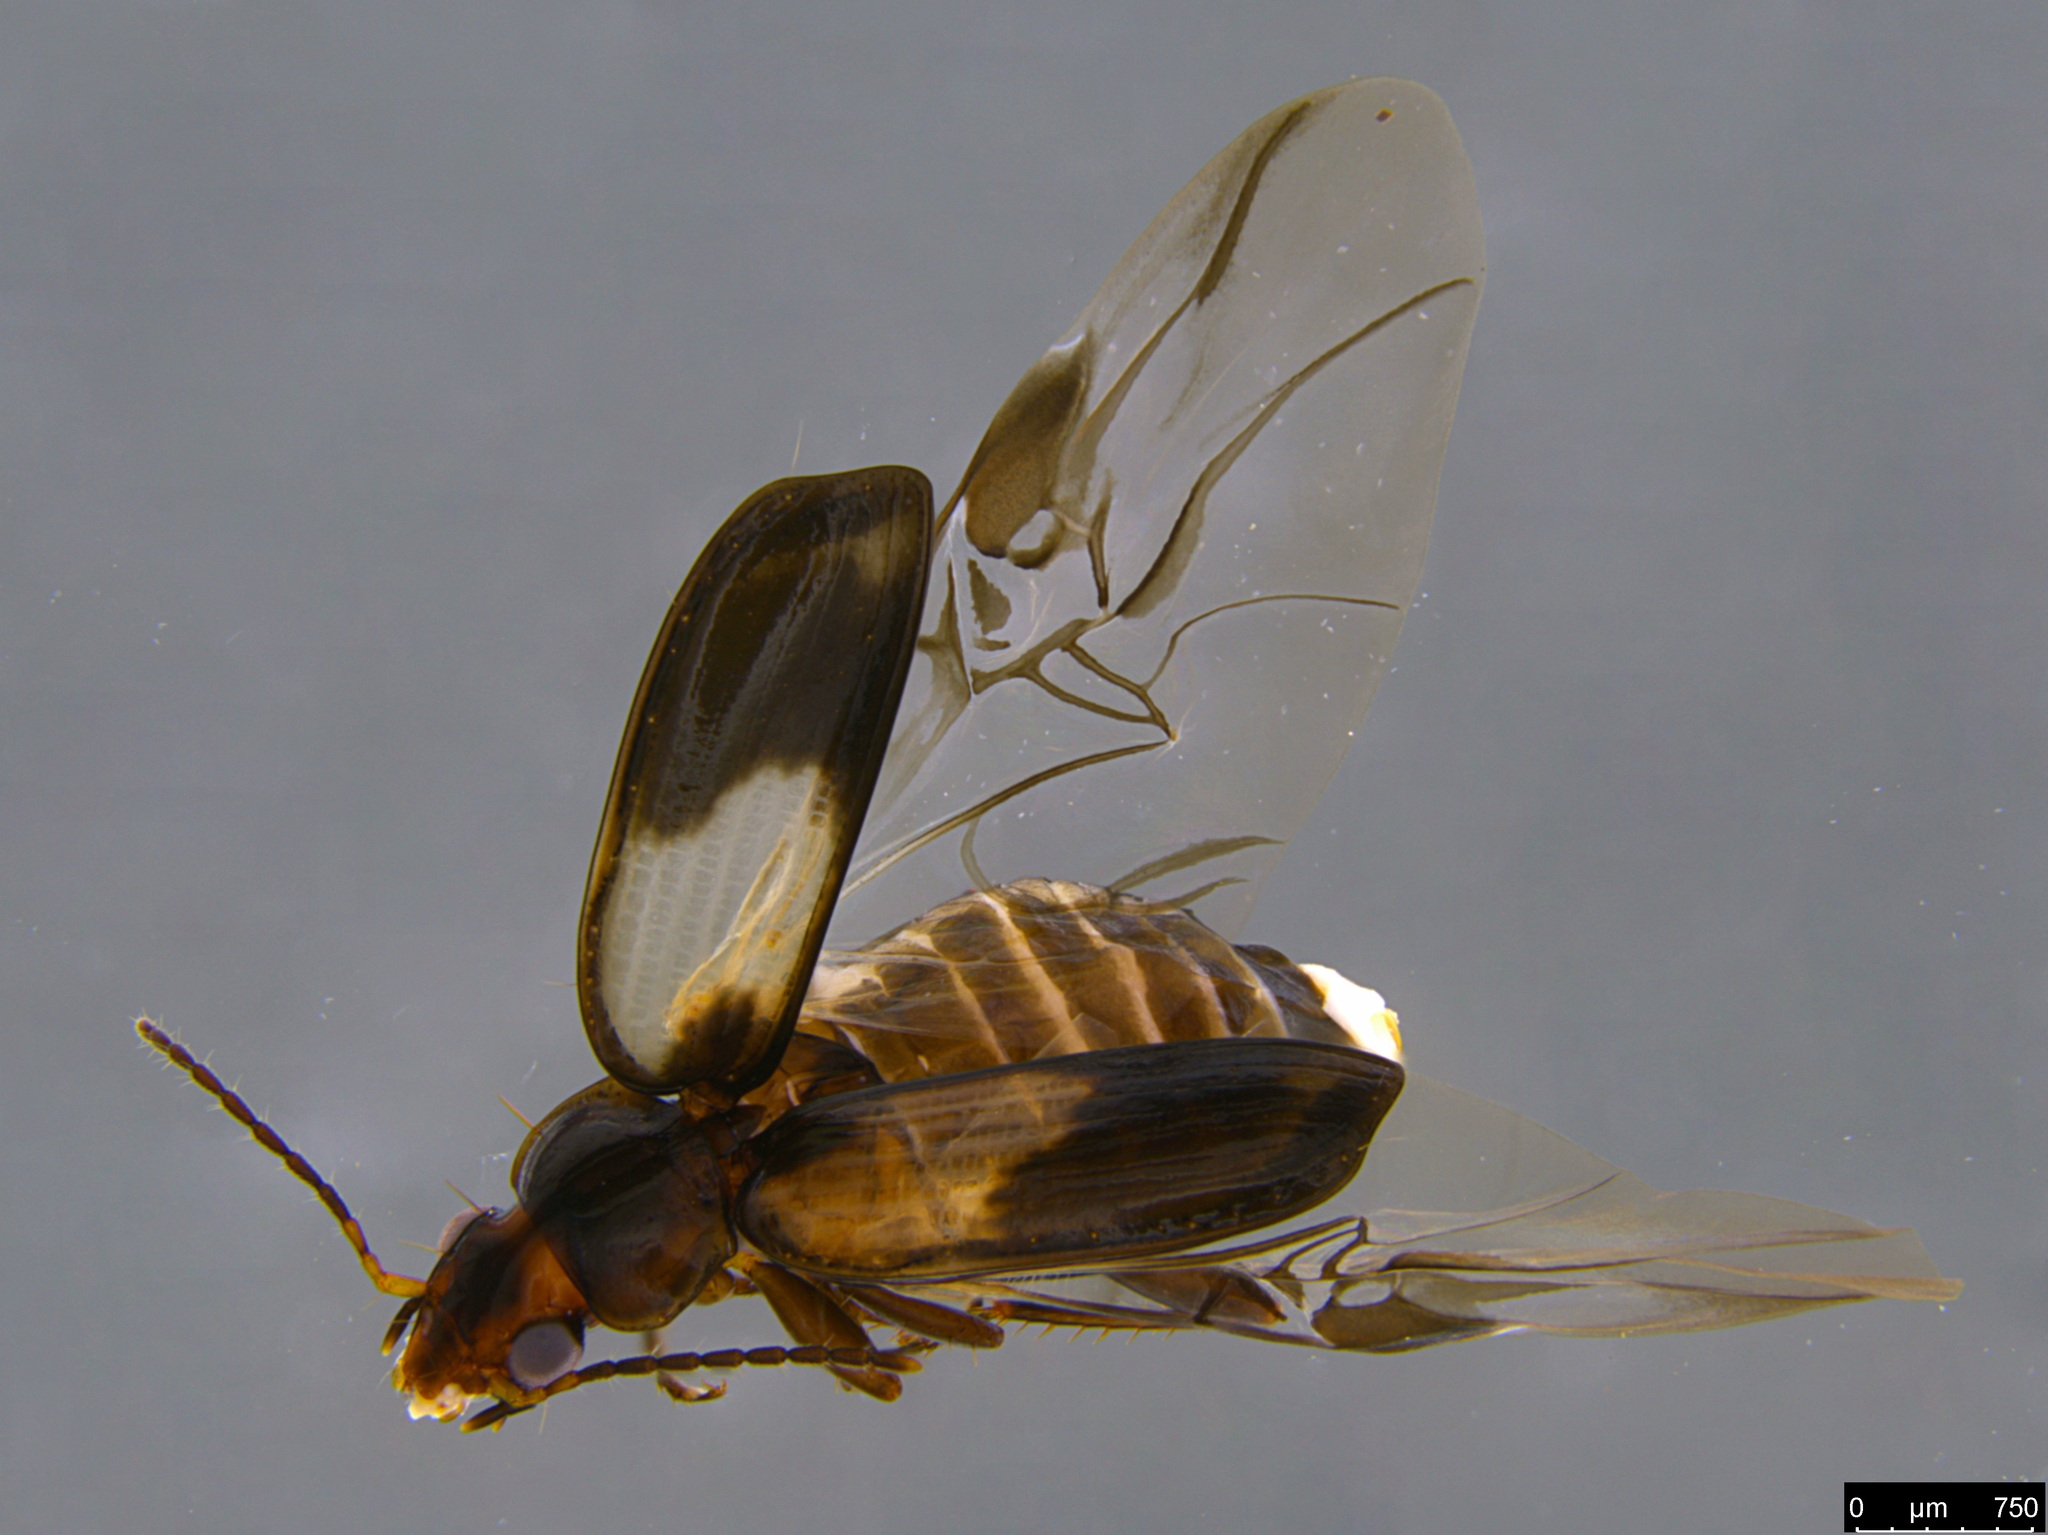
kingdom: Animalia
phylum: Arthropoda
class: Insecta
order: Coleoptera
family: Carabidae
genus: Sarothrocrepis
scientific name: Sarothrocrepis civica
